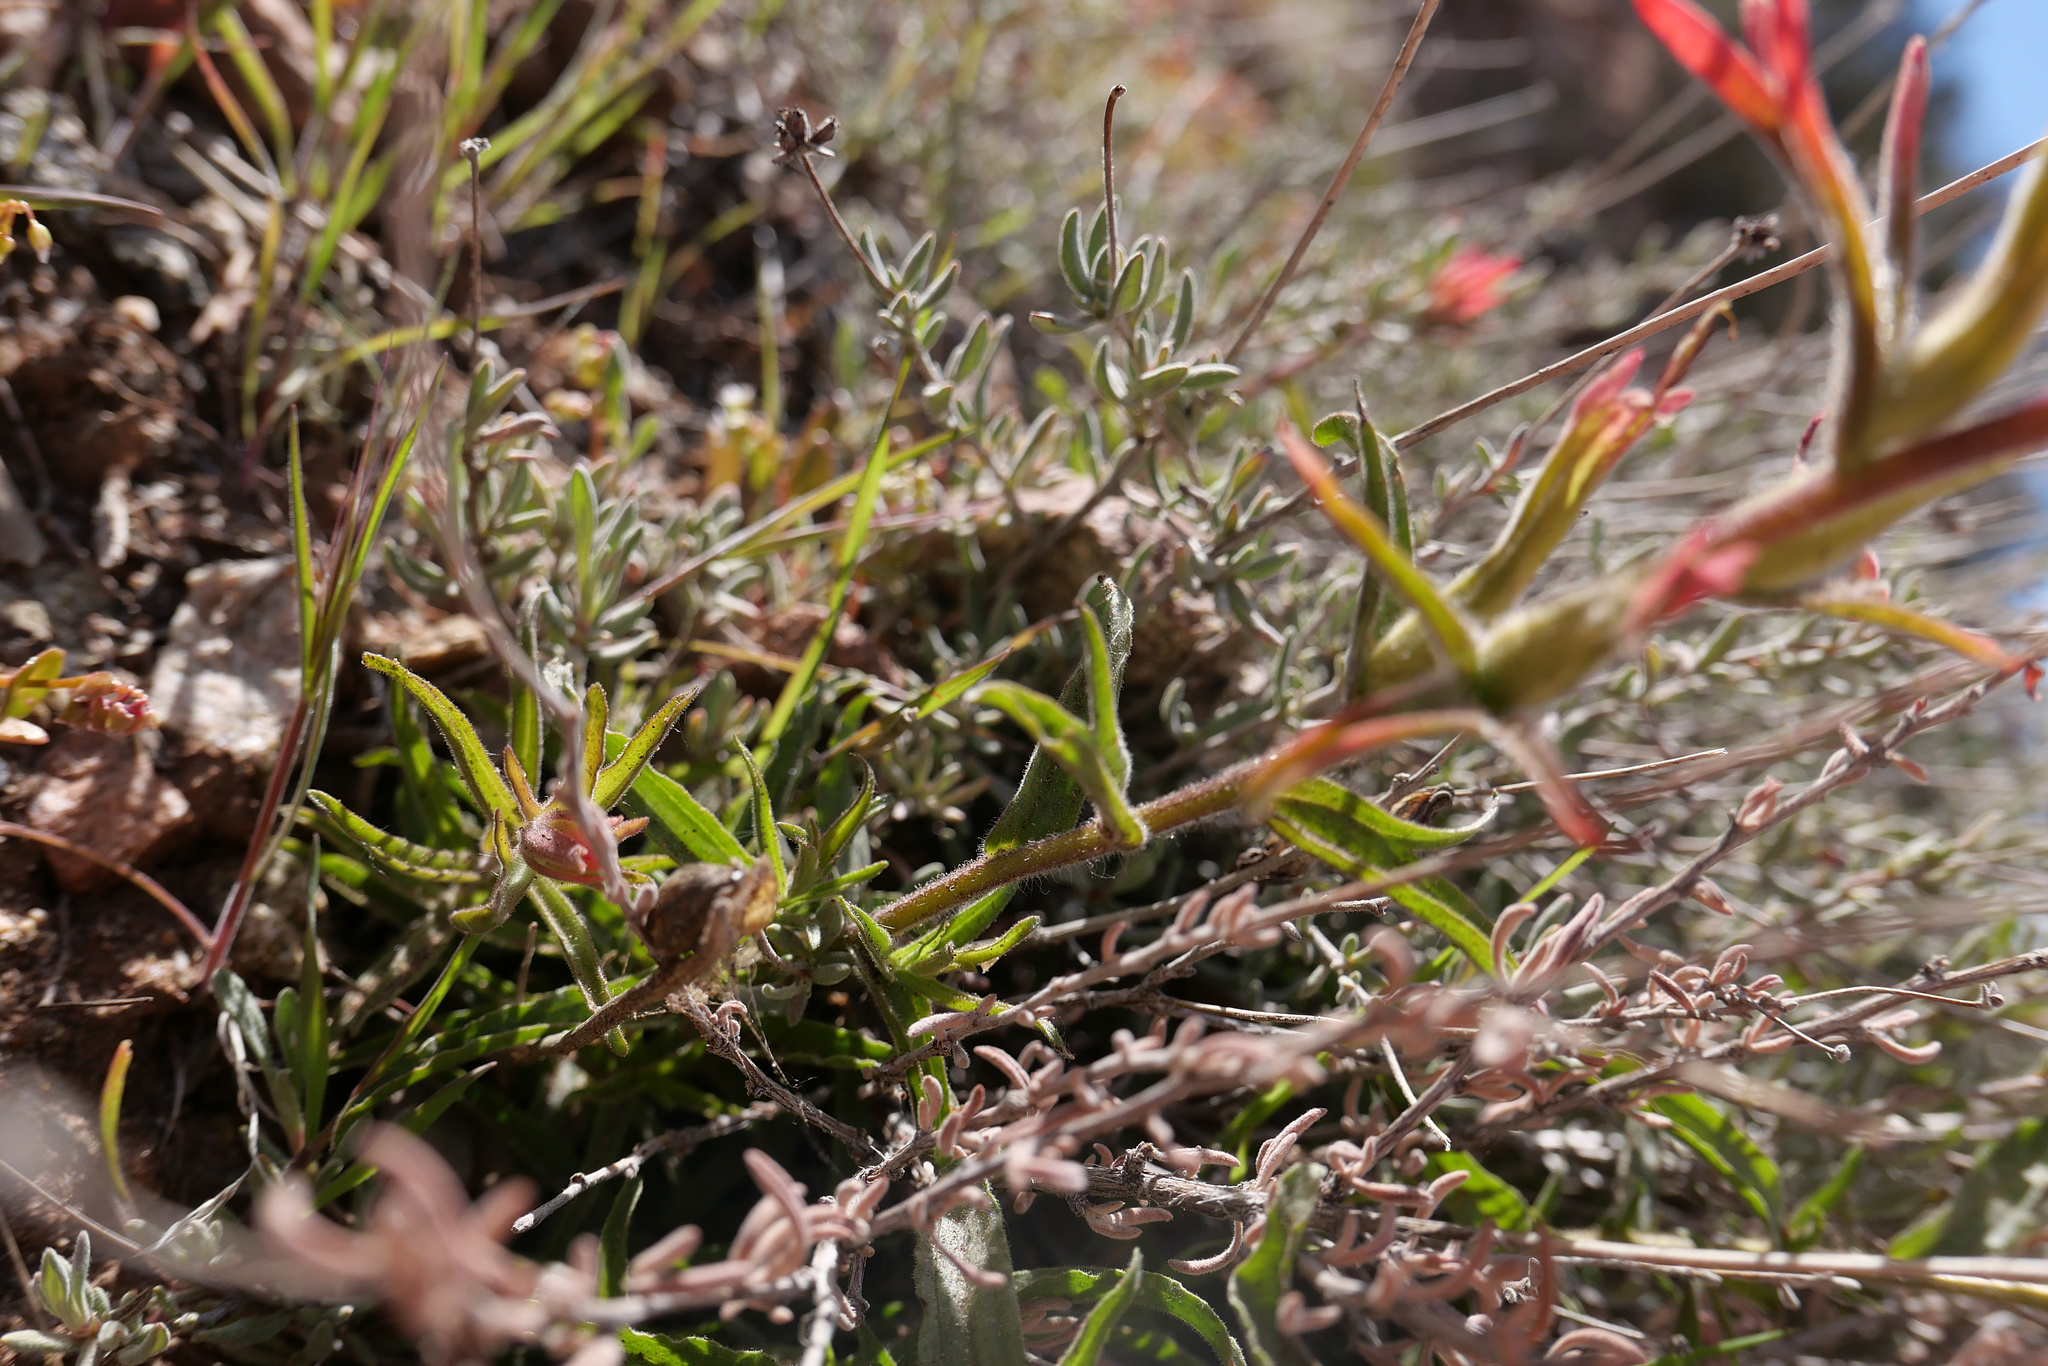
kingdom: Plantae
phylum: Tracheophyta
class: Magnoliopsida
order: Lamiales
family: Orobanchaceae
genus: Castilleja
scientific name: Castilleja affinis
